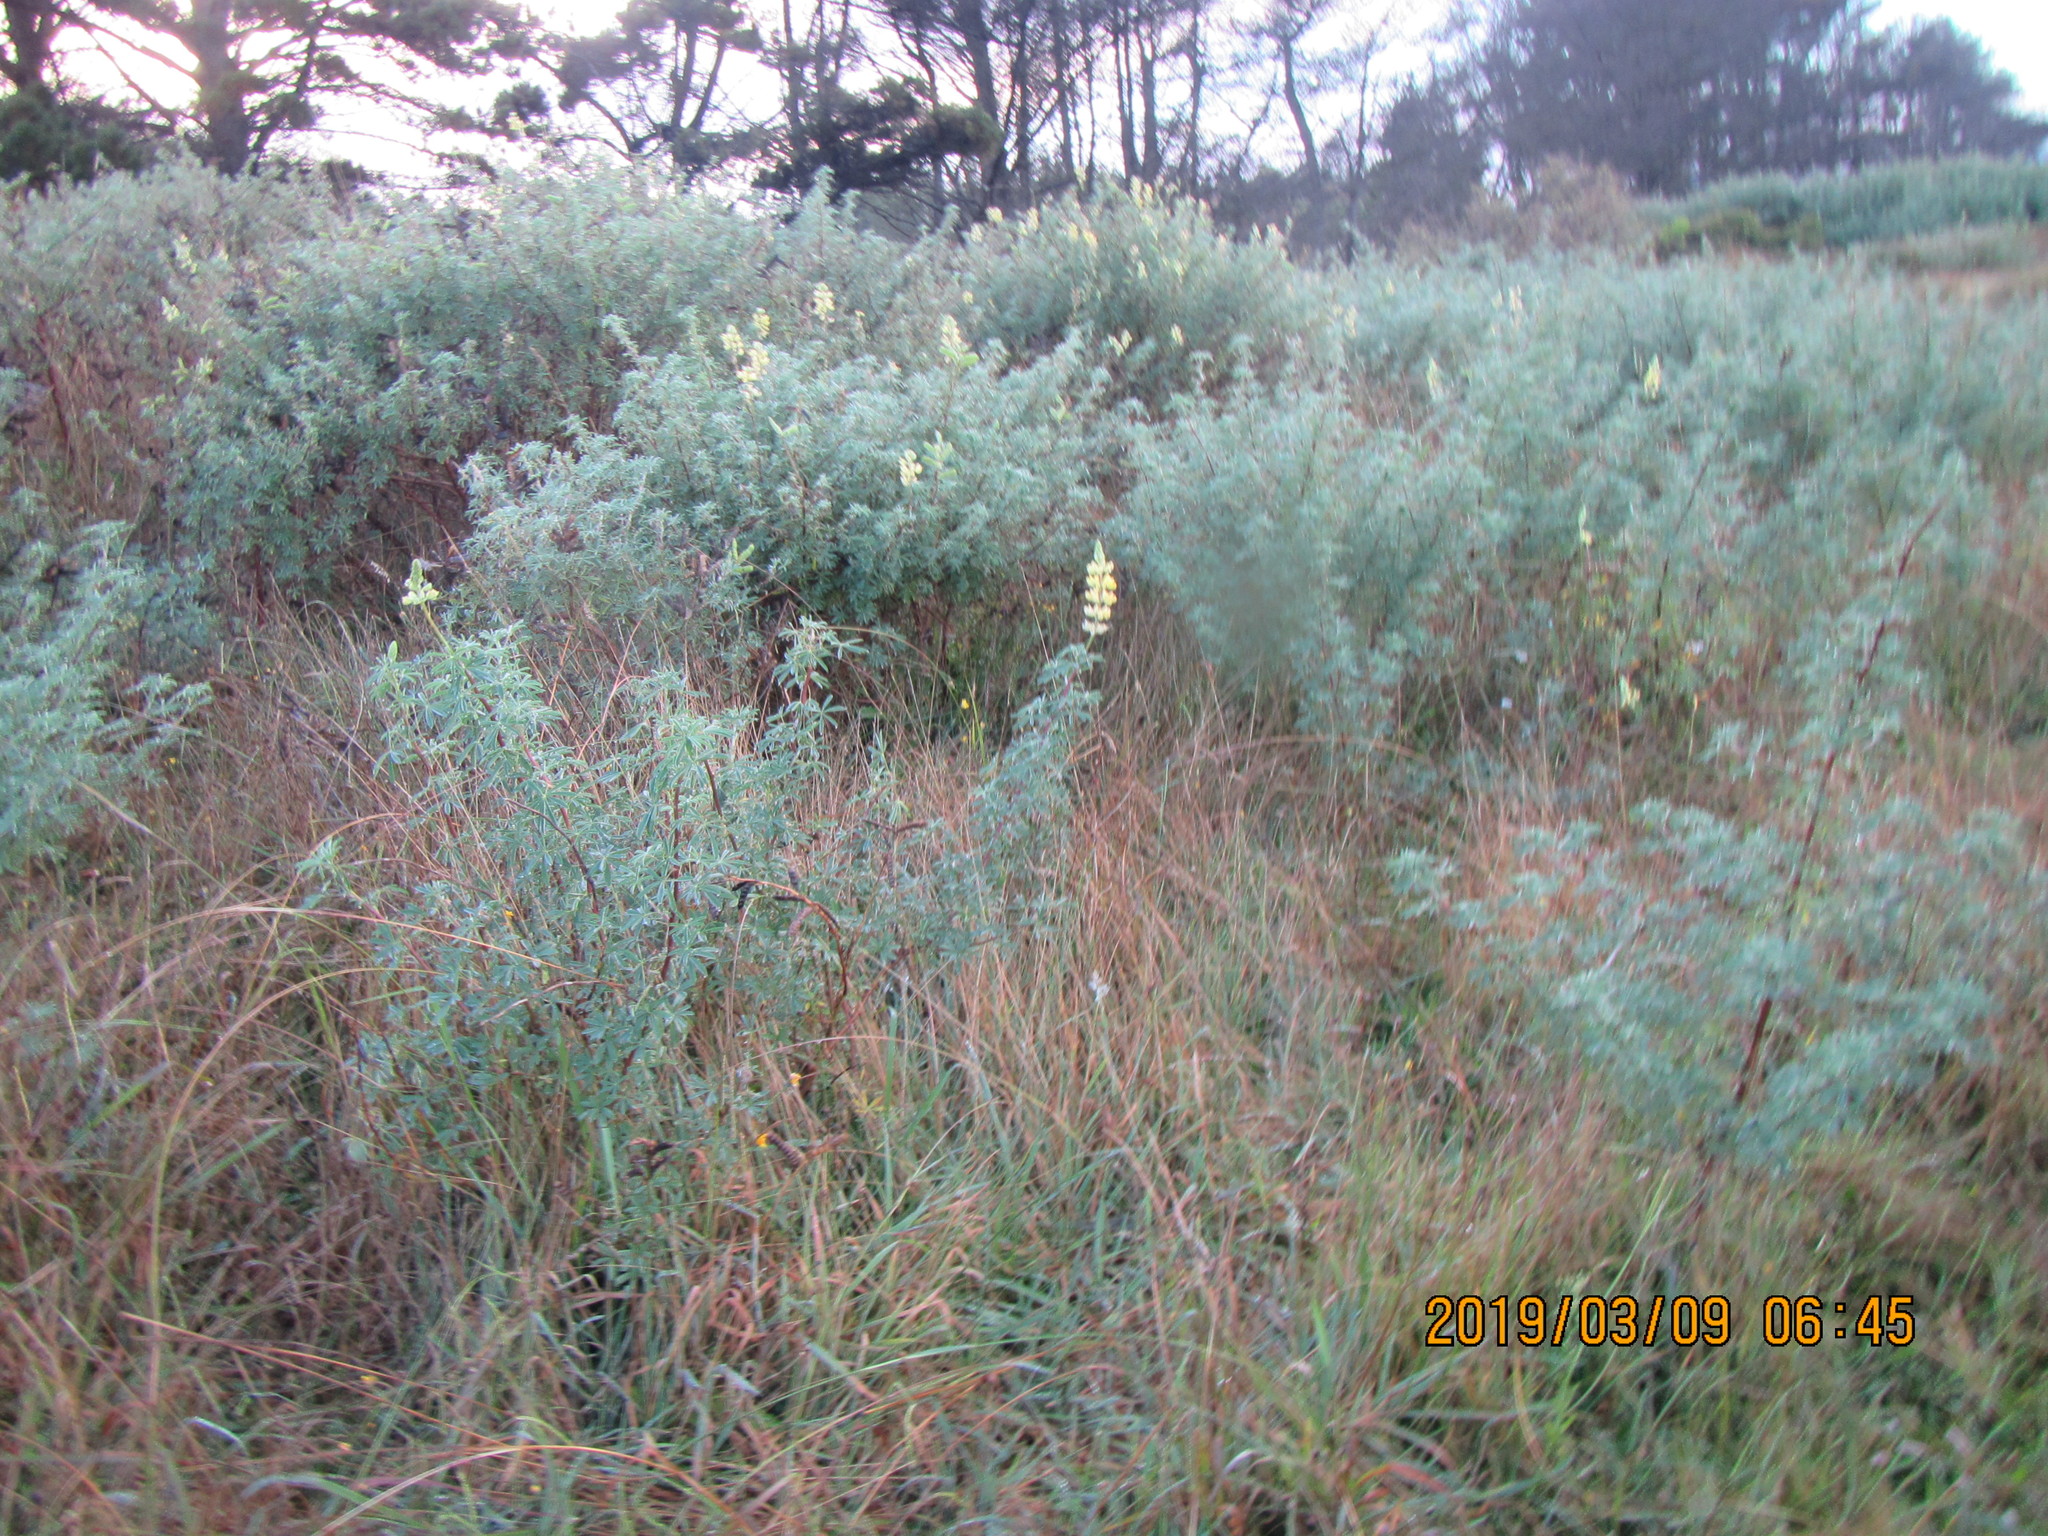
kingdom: Plantae
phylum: Tracheophyta
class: Magnoliopsida
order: Fabales
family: Fabaceae
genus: Lupinus
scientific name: Lupinus arboreus
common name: Yellow bush lupine
